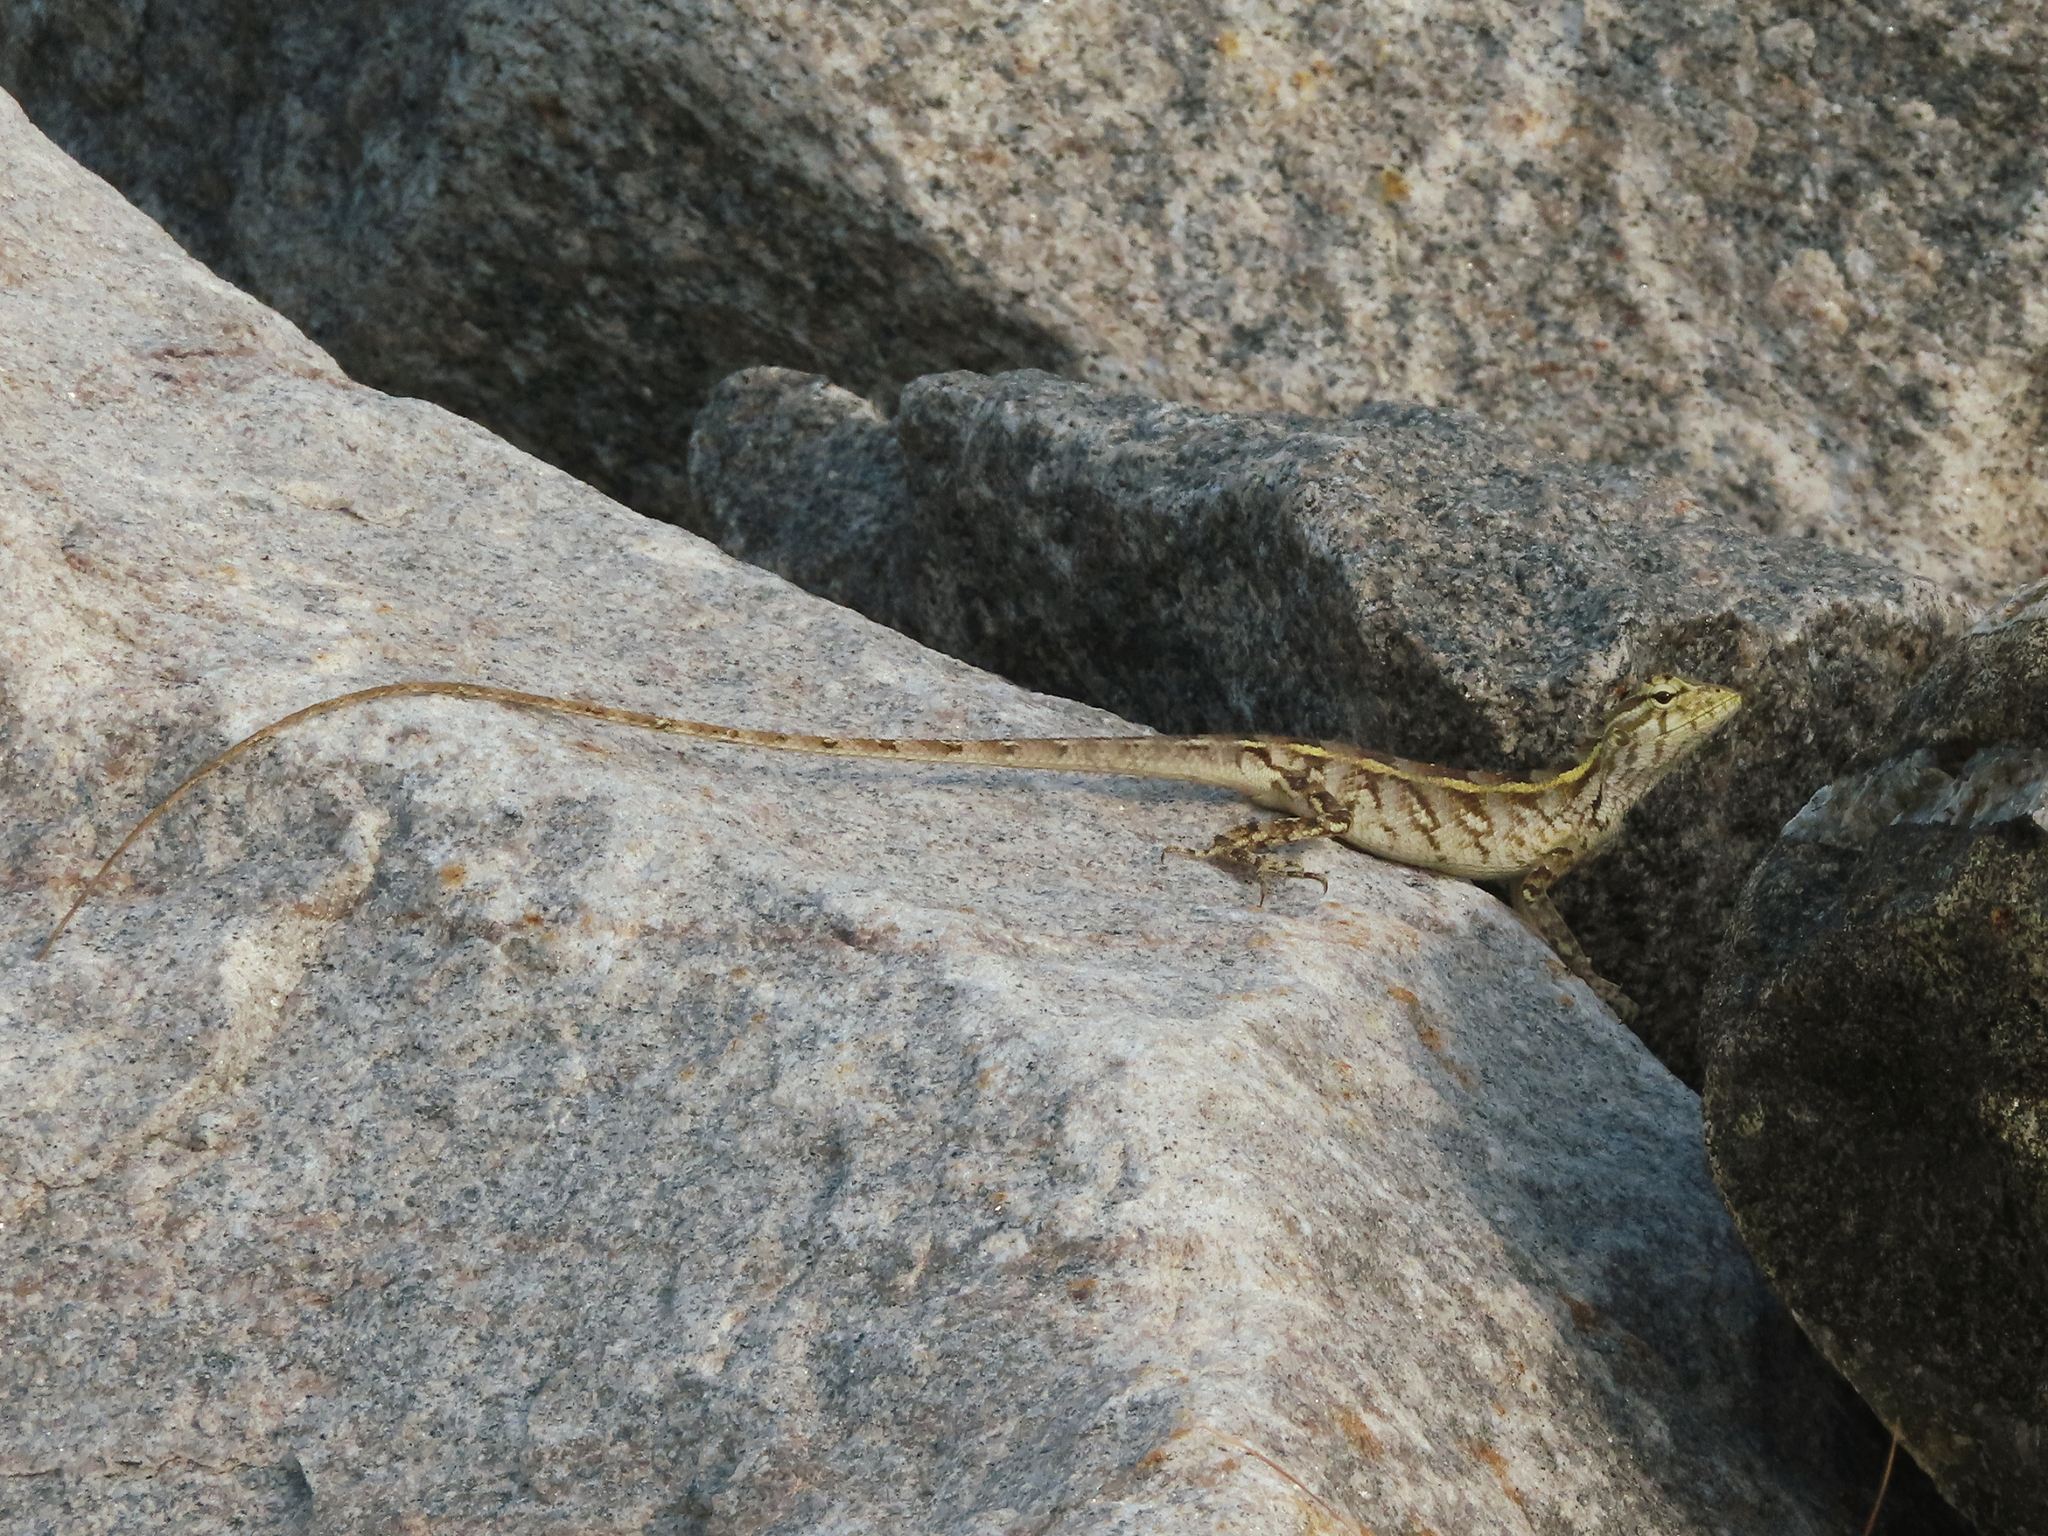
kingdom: Animalia
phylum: Chordata
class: Squamata
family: Agamidae
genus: Calotes
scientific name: Calotes versicolor
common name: Oriental garden lizard
